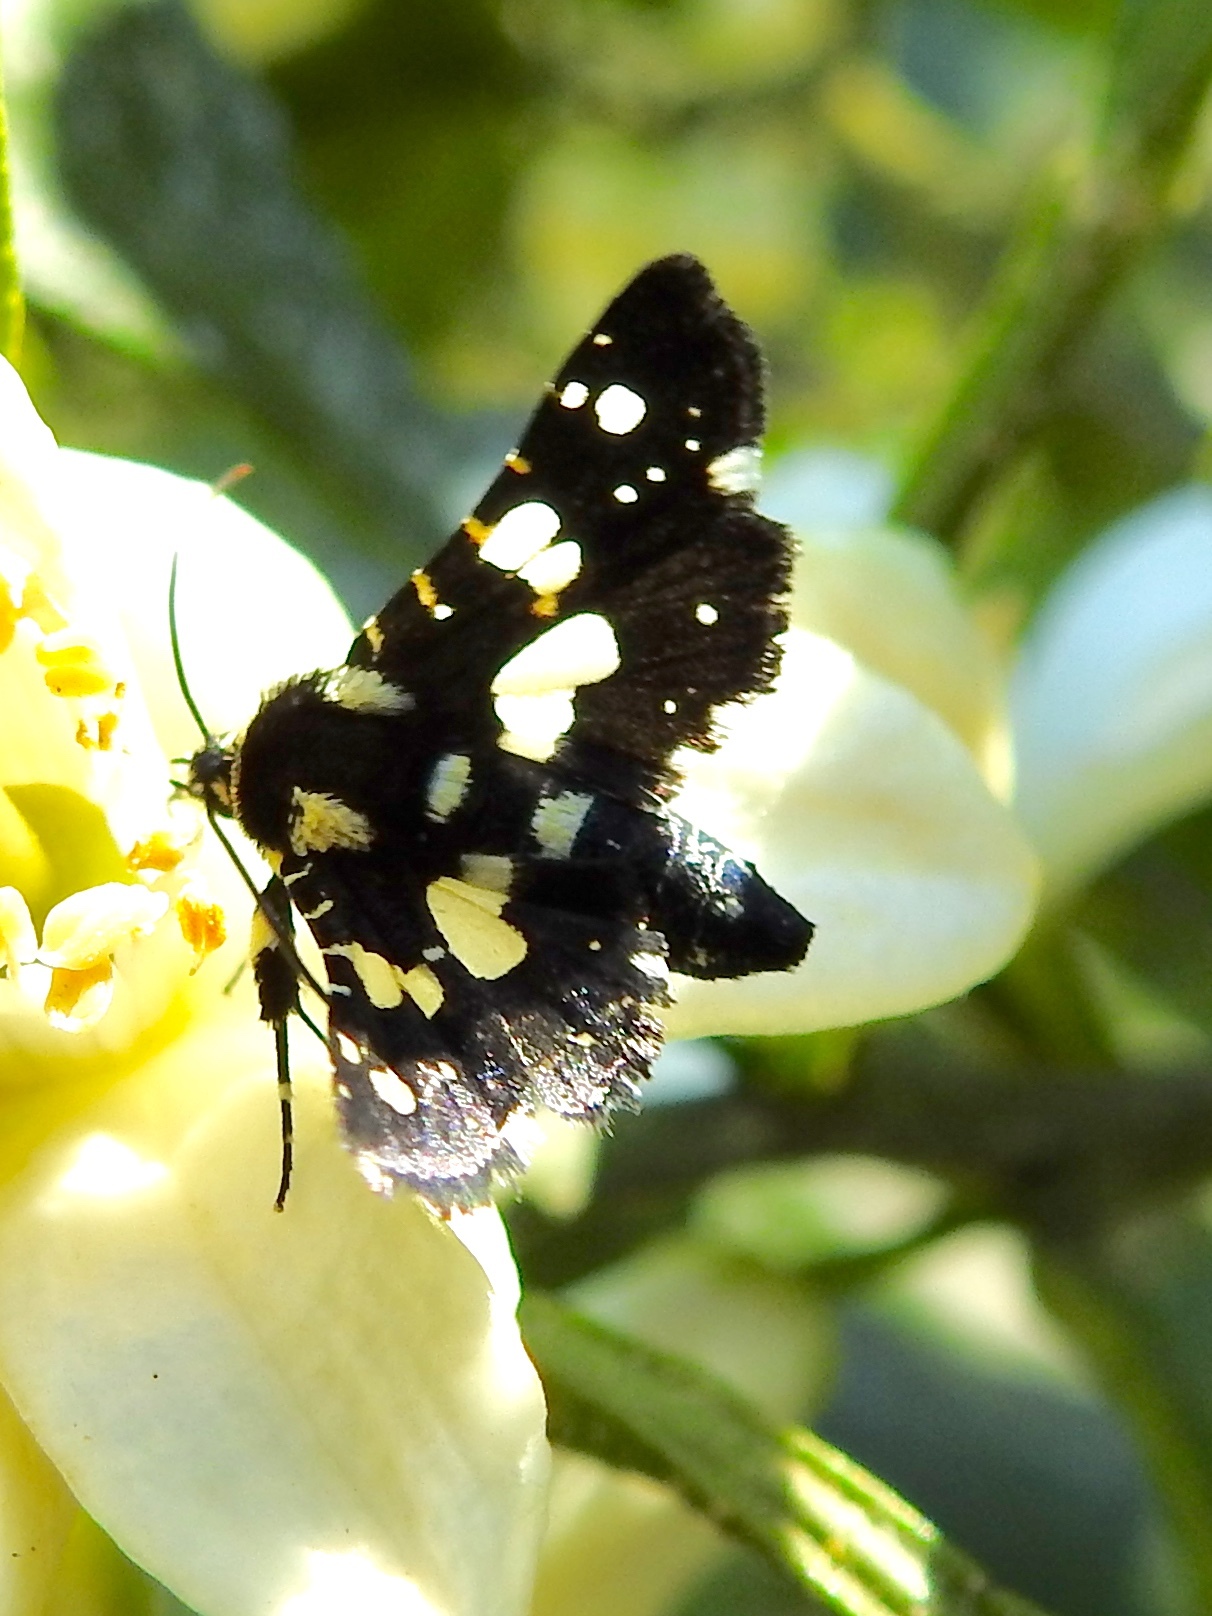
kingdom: Animalia
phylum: Arthropoda
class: Insecta
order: Lepidoptera
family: Thyrididae
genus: Pseudothyris
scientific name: Pseudothyris sepulchralis
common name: Mournful thyris moth
